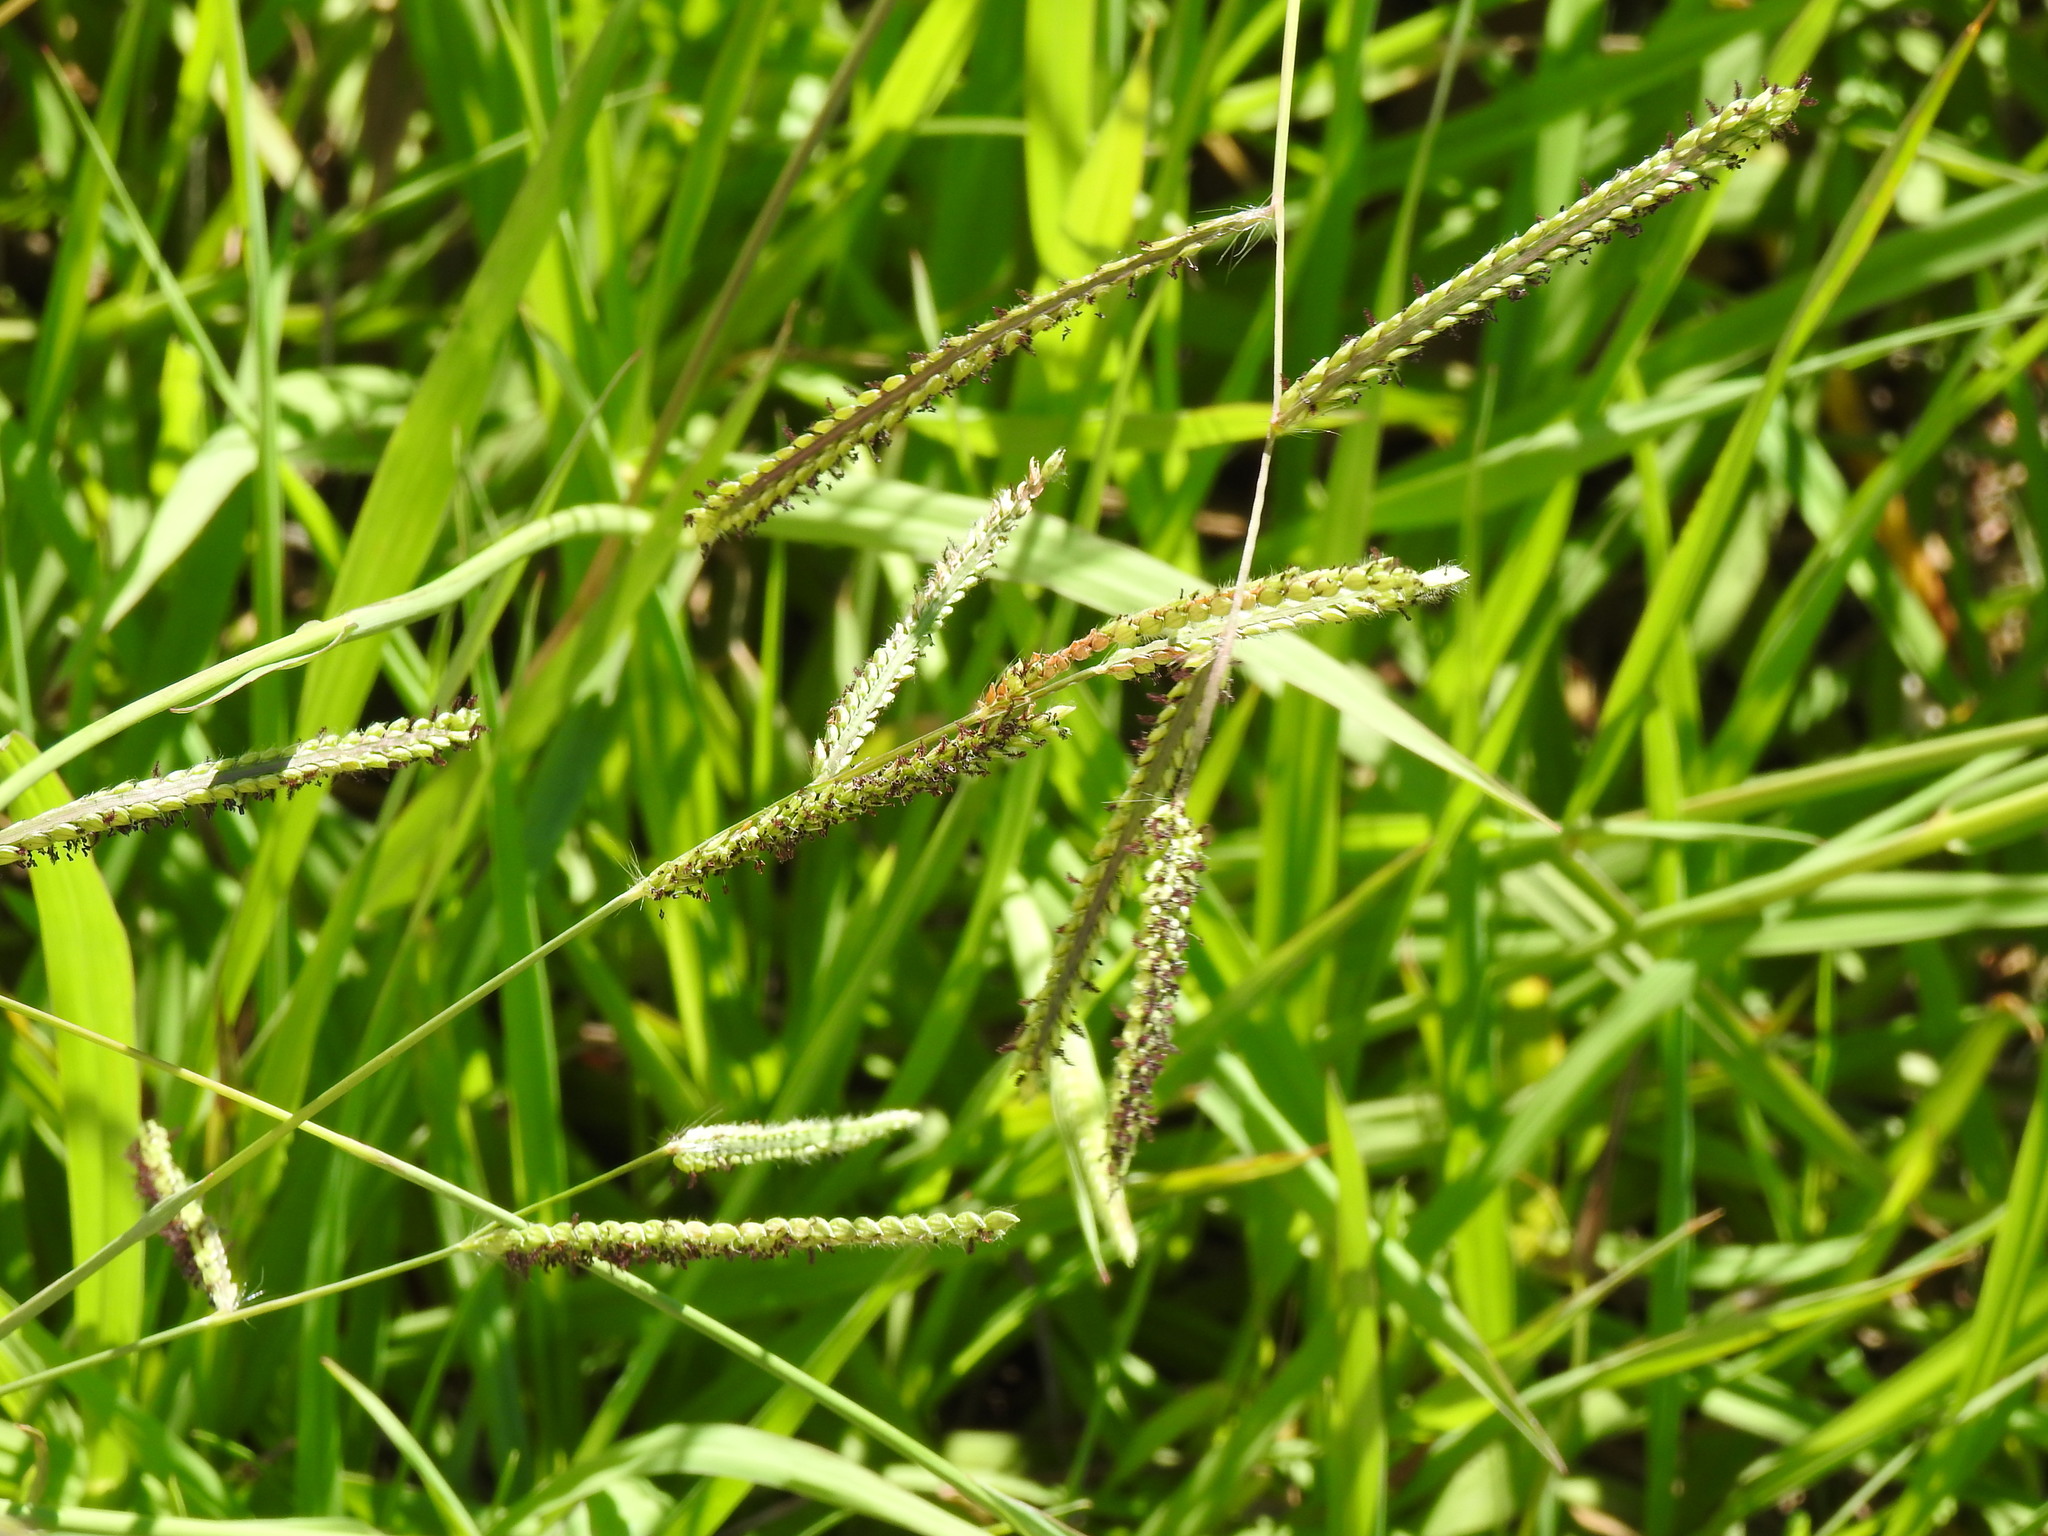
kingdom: Plantae
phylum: Tracheophyta
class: Liliopsida
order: Poales
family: Poaceae
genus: Paspalum
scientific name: Paspalum dilatatum
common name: Dallisgrass
